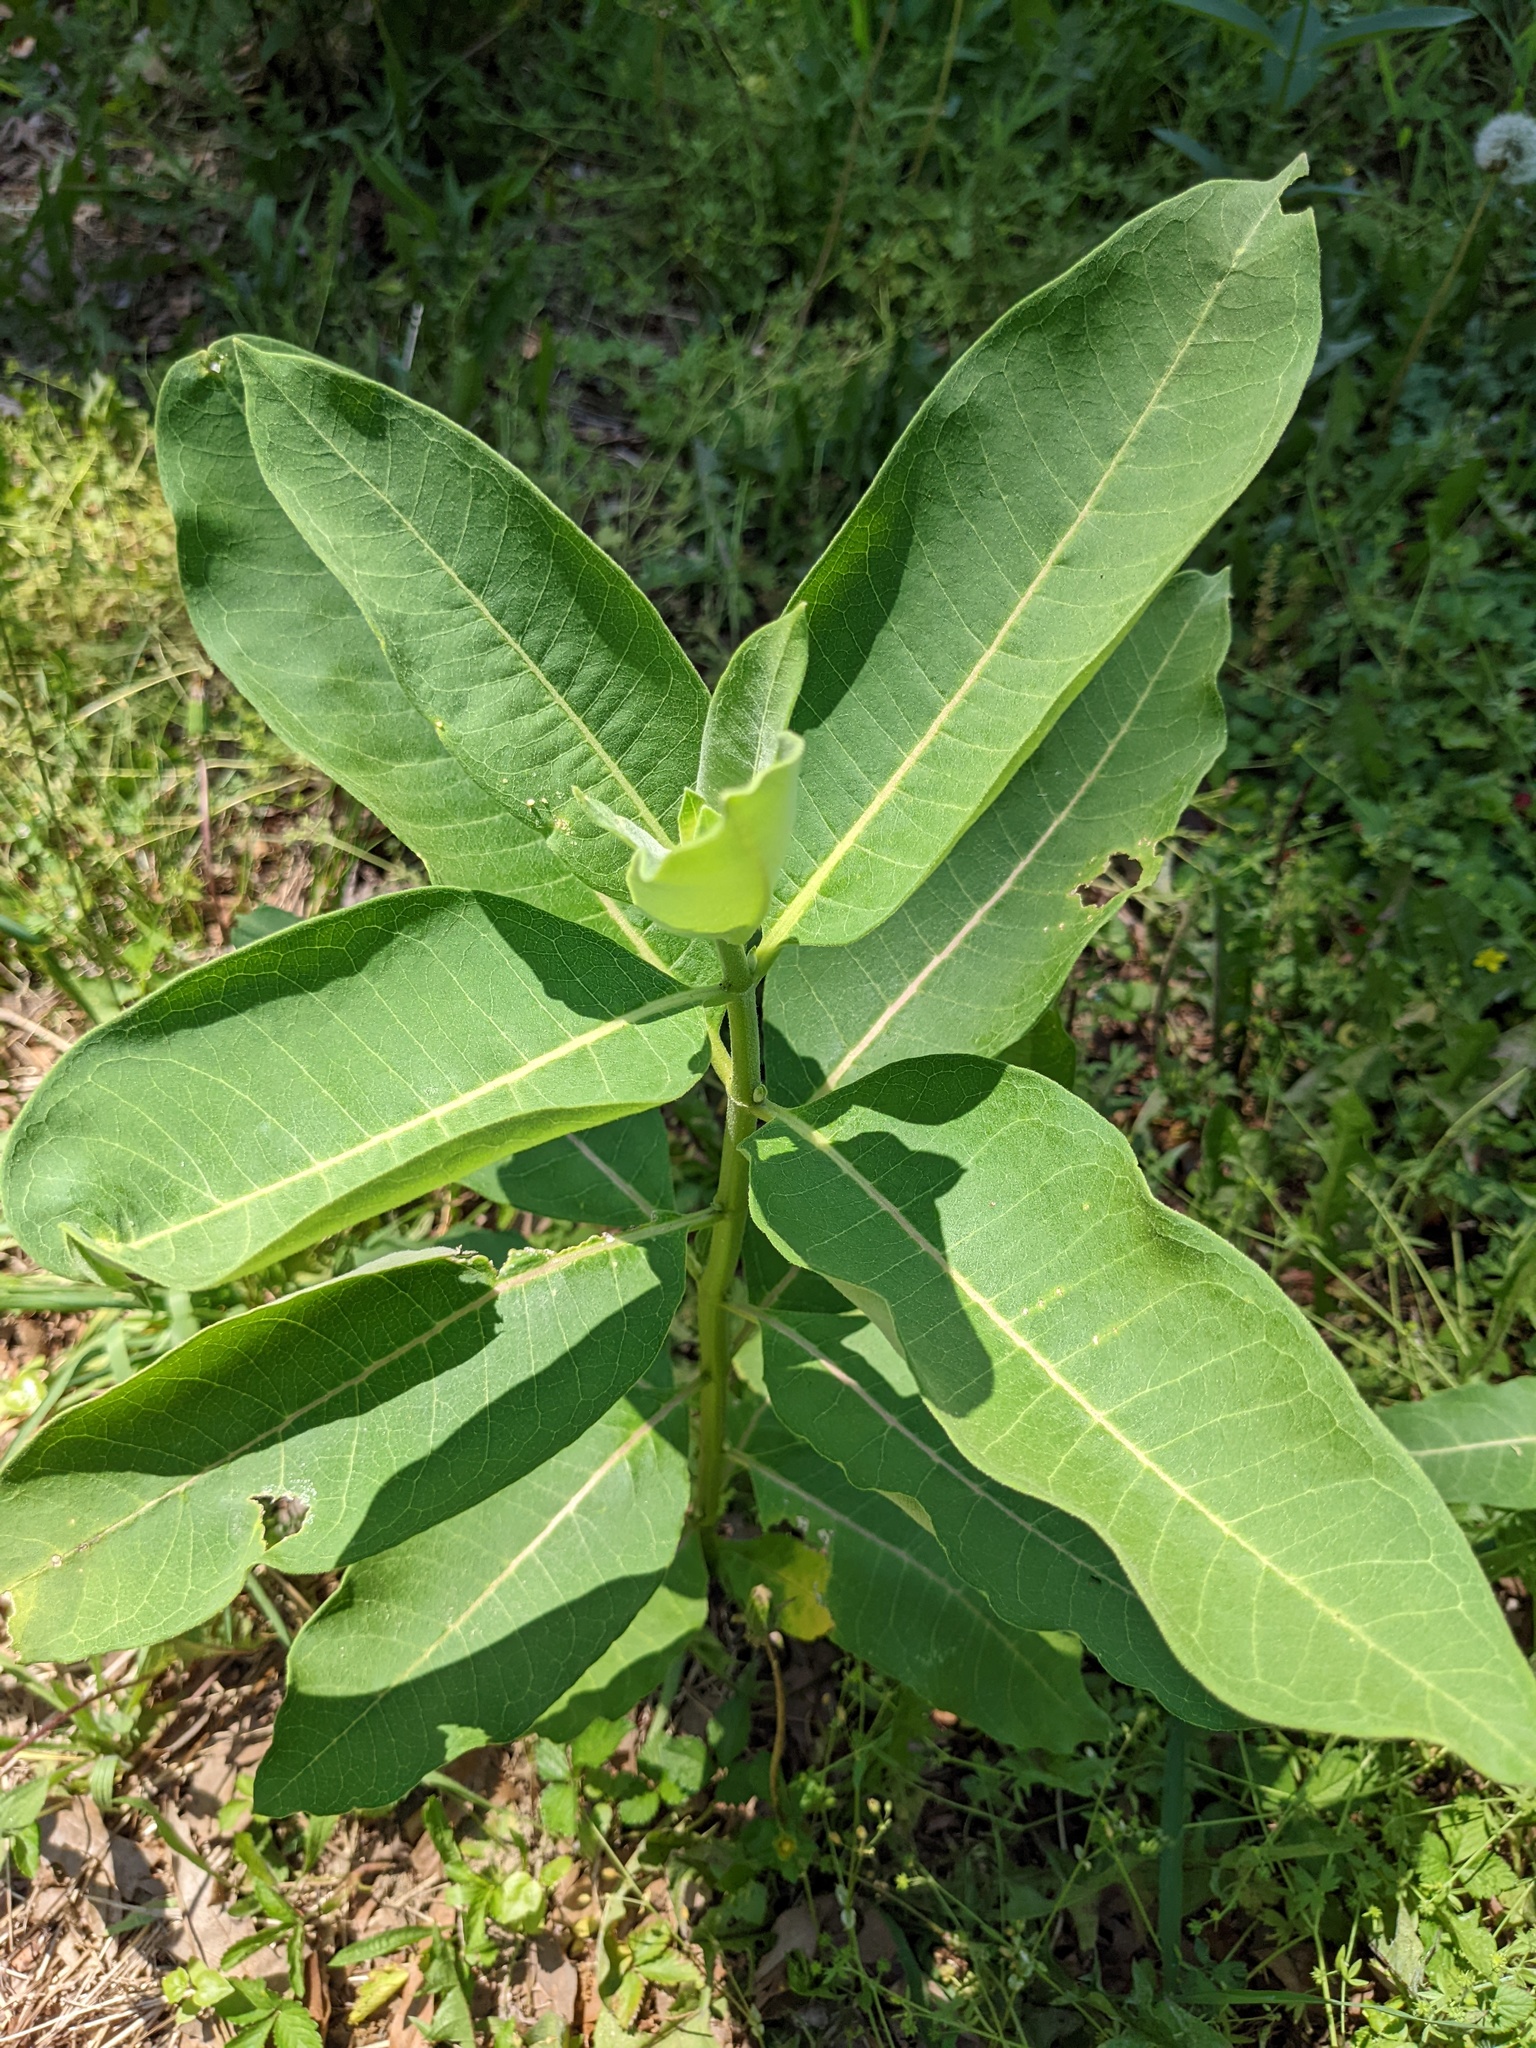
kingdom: Plantae
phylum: Tracheophyta
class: Magnoliopsida
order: Gentianales
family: Apocynaceae
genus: Asclepias
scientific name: Asclepias syriaca
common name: Common milkweed
